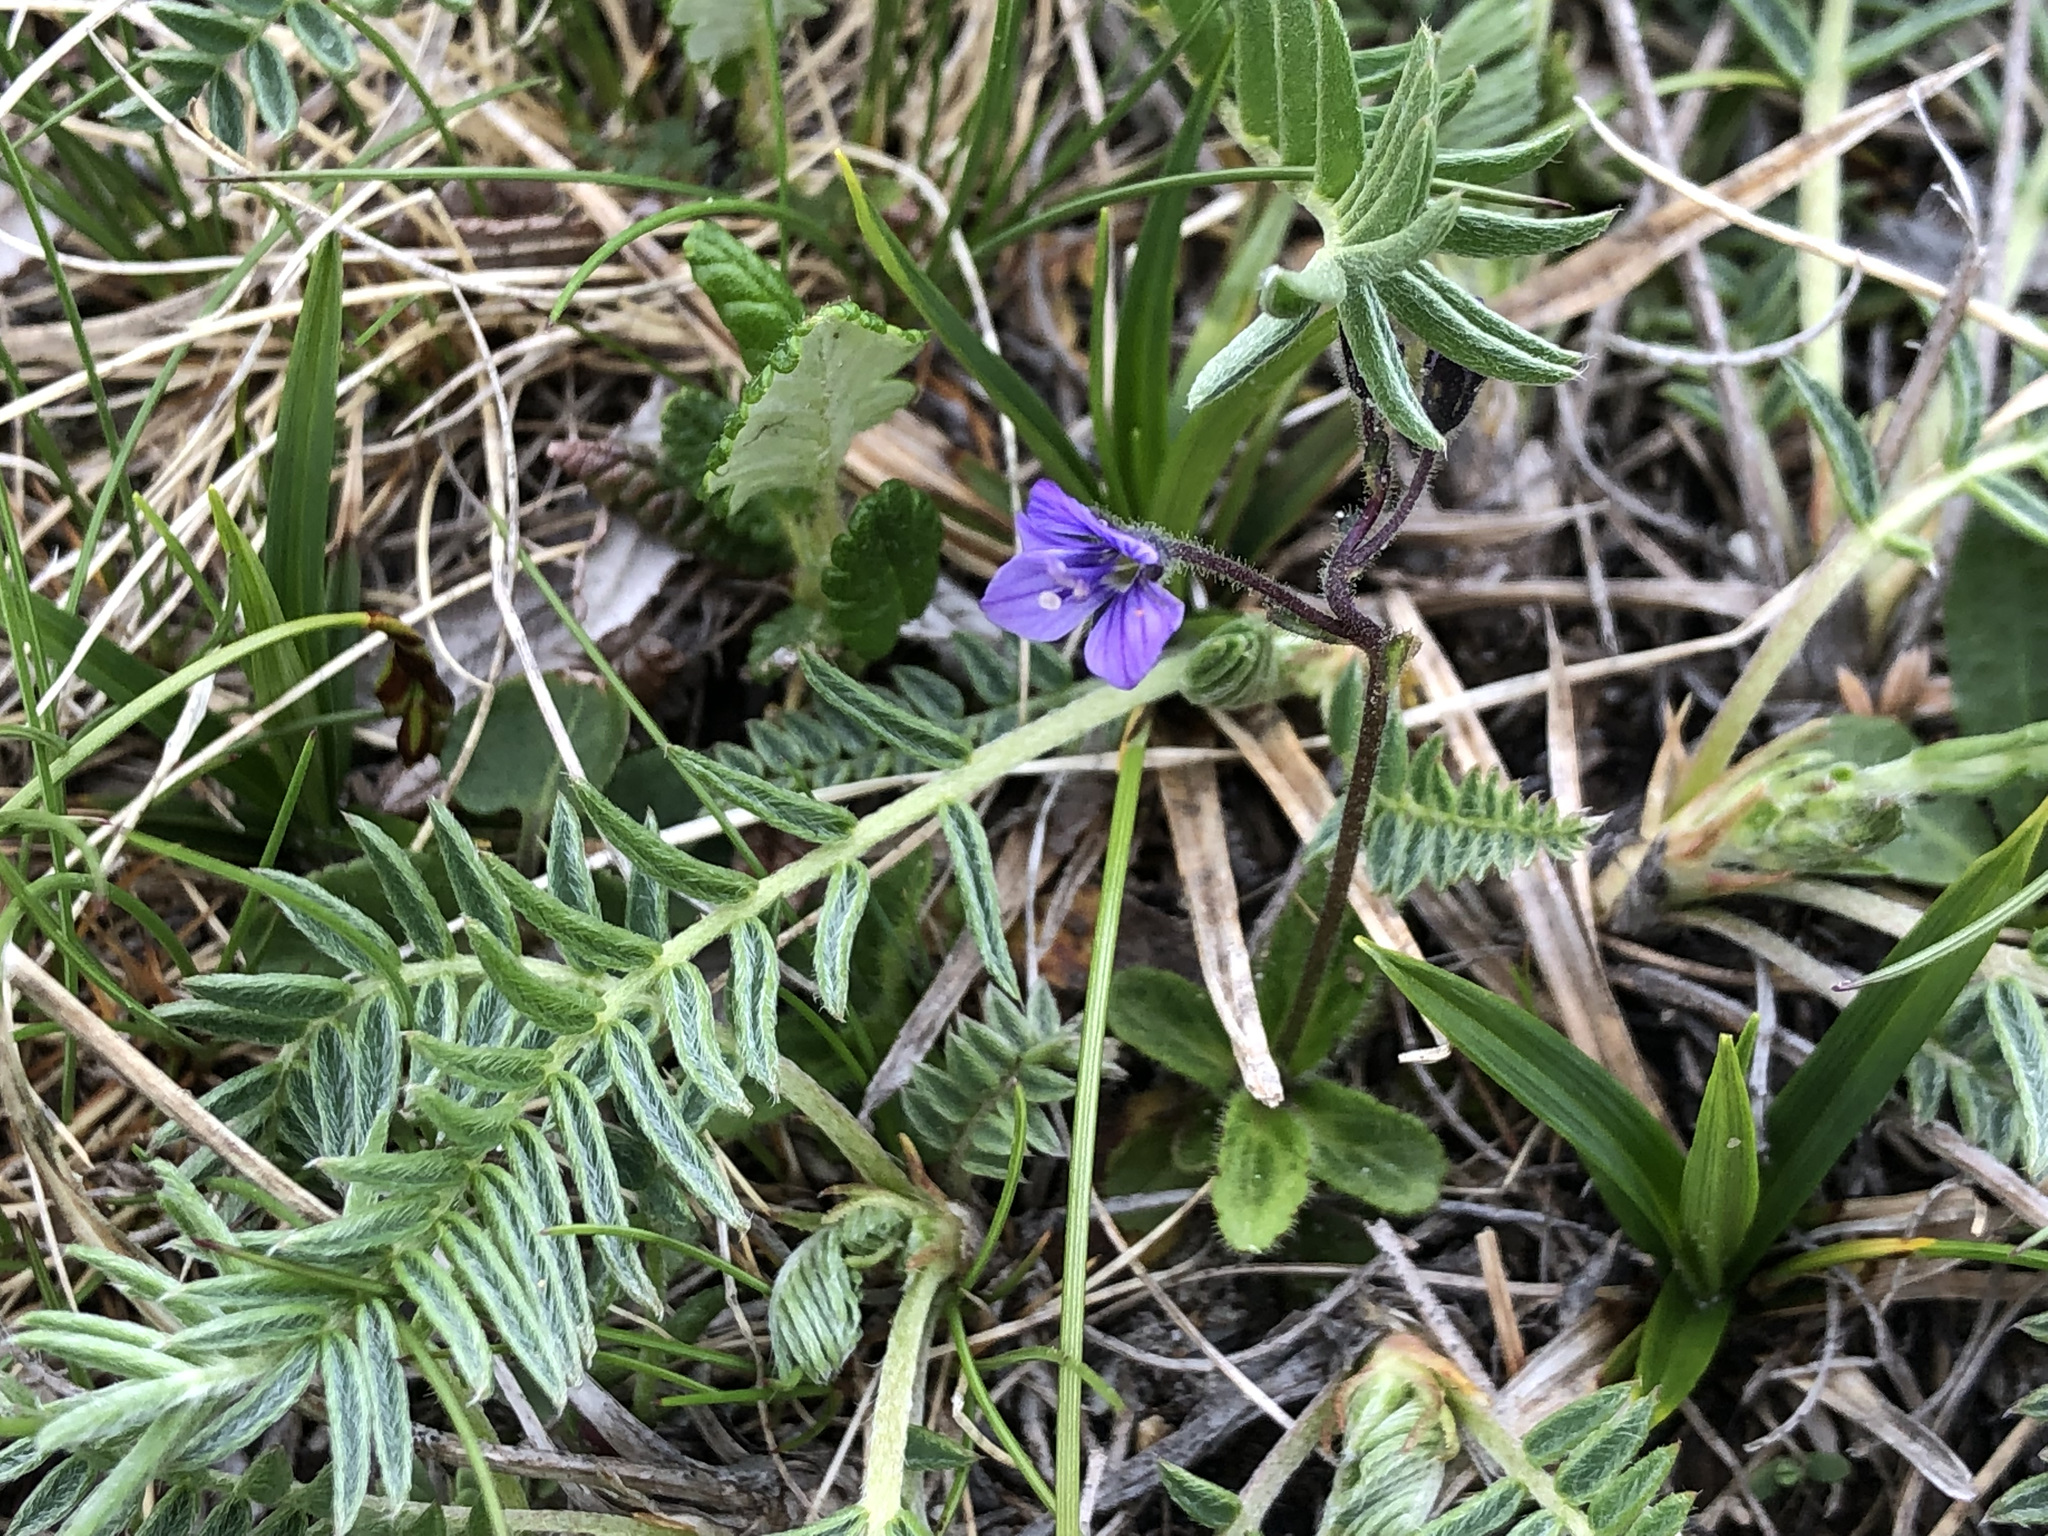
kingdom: Plantae
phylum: Tracheophyta
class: Magnoliopsida
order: Lamiales
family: Plantaginaceae
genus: Veronica
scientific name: Veronica aphylla
